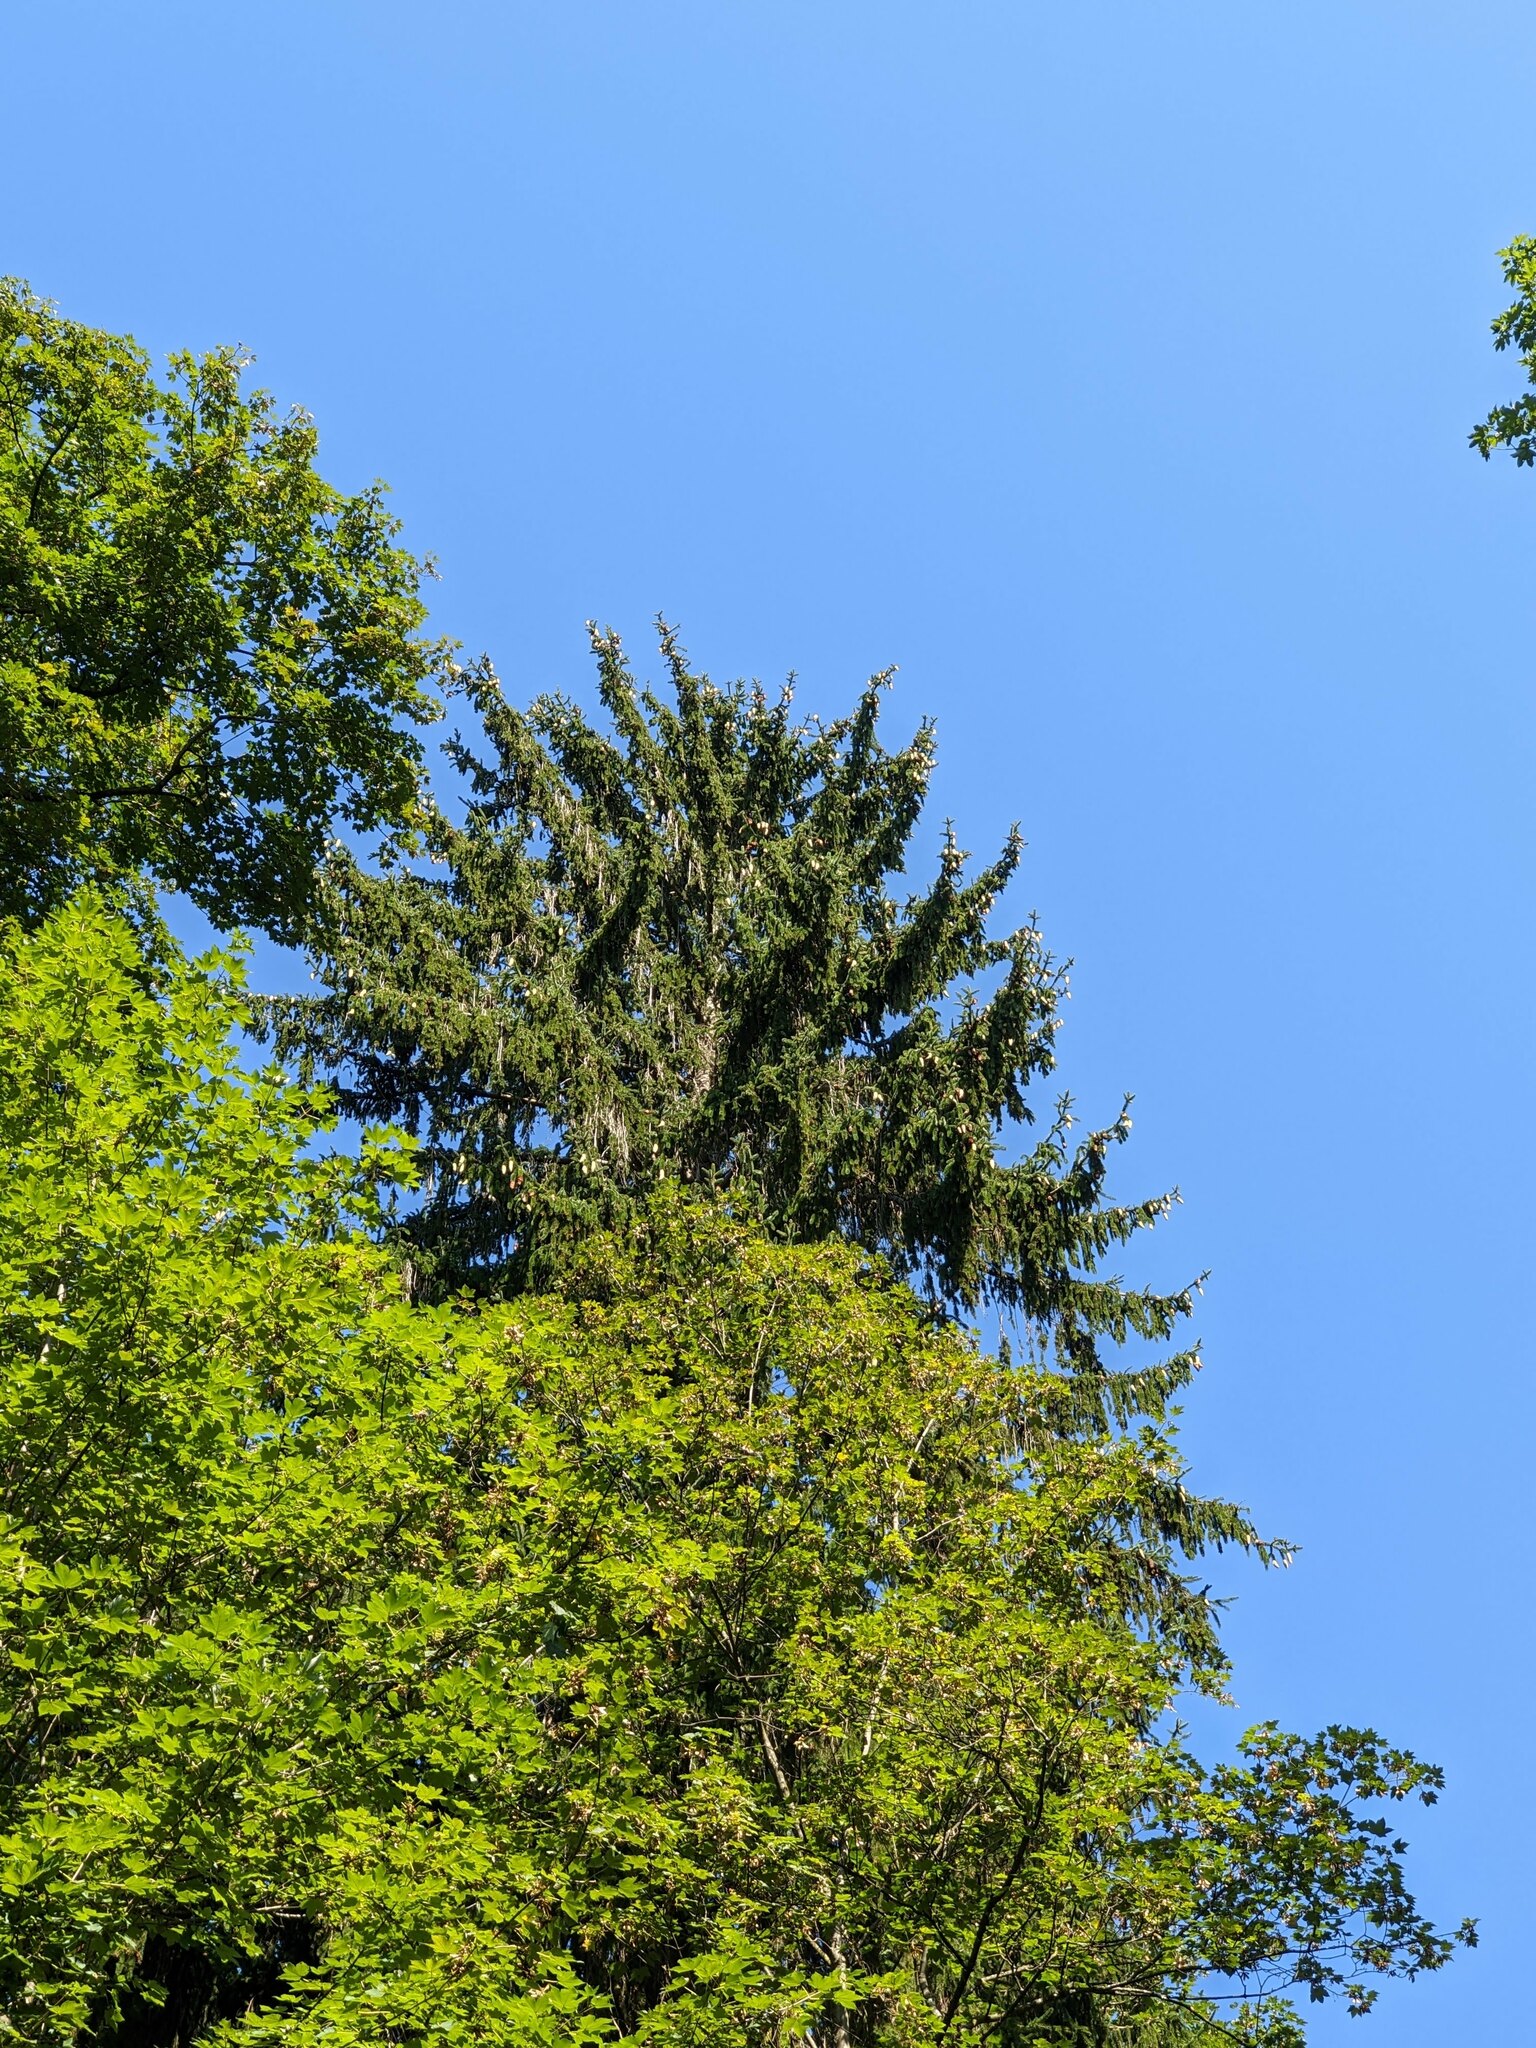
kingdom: Plantae
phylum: Tracheophyta
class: Pinopsida
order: Pinales
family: Pinaceae
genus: Picea
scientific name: Picea abies
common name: Norway spruce
